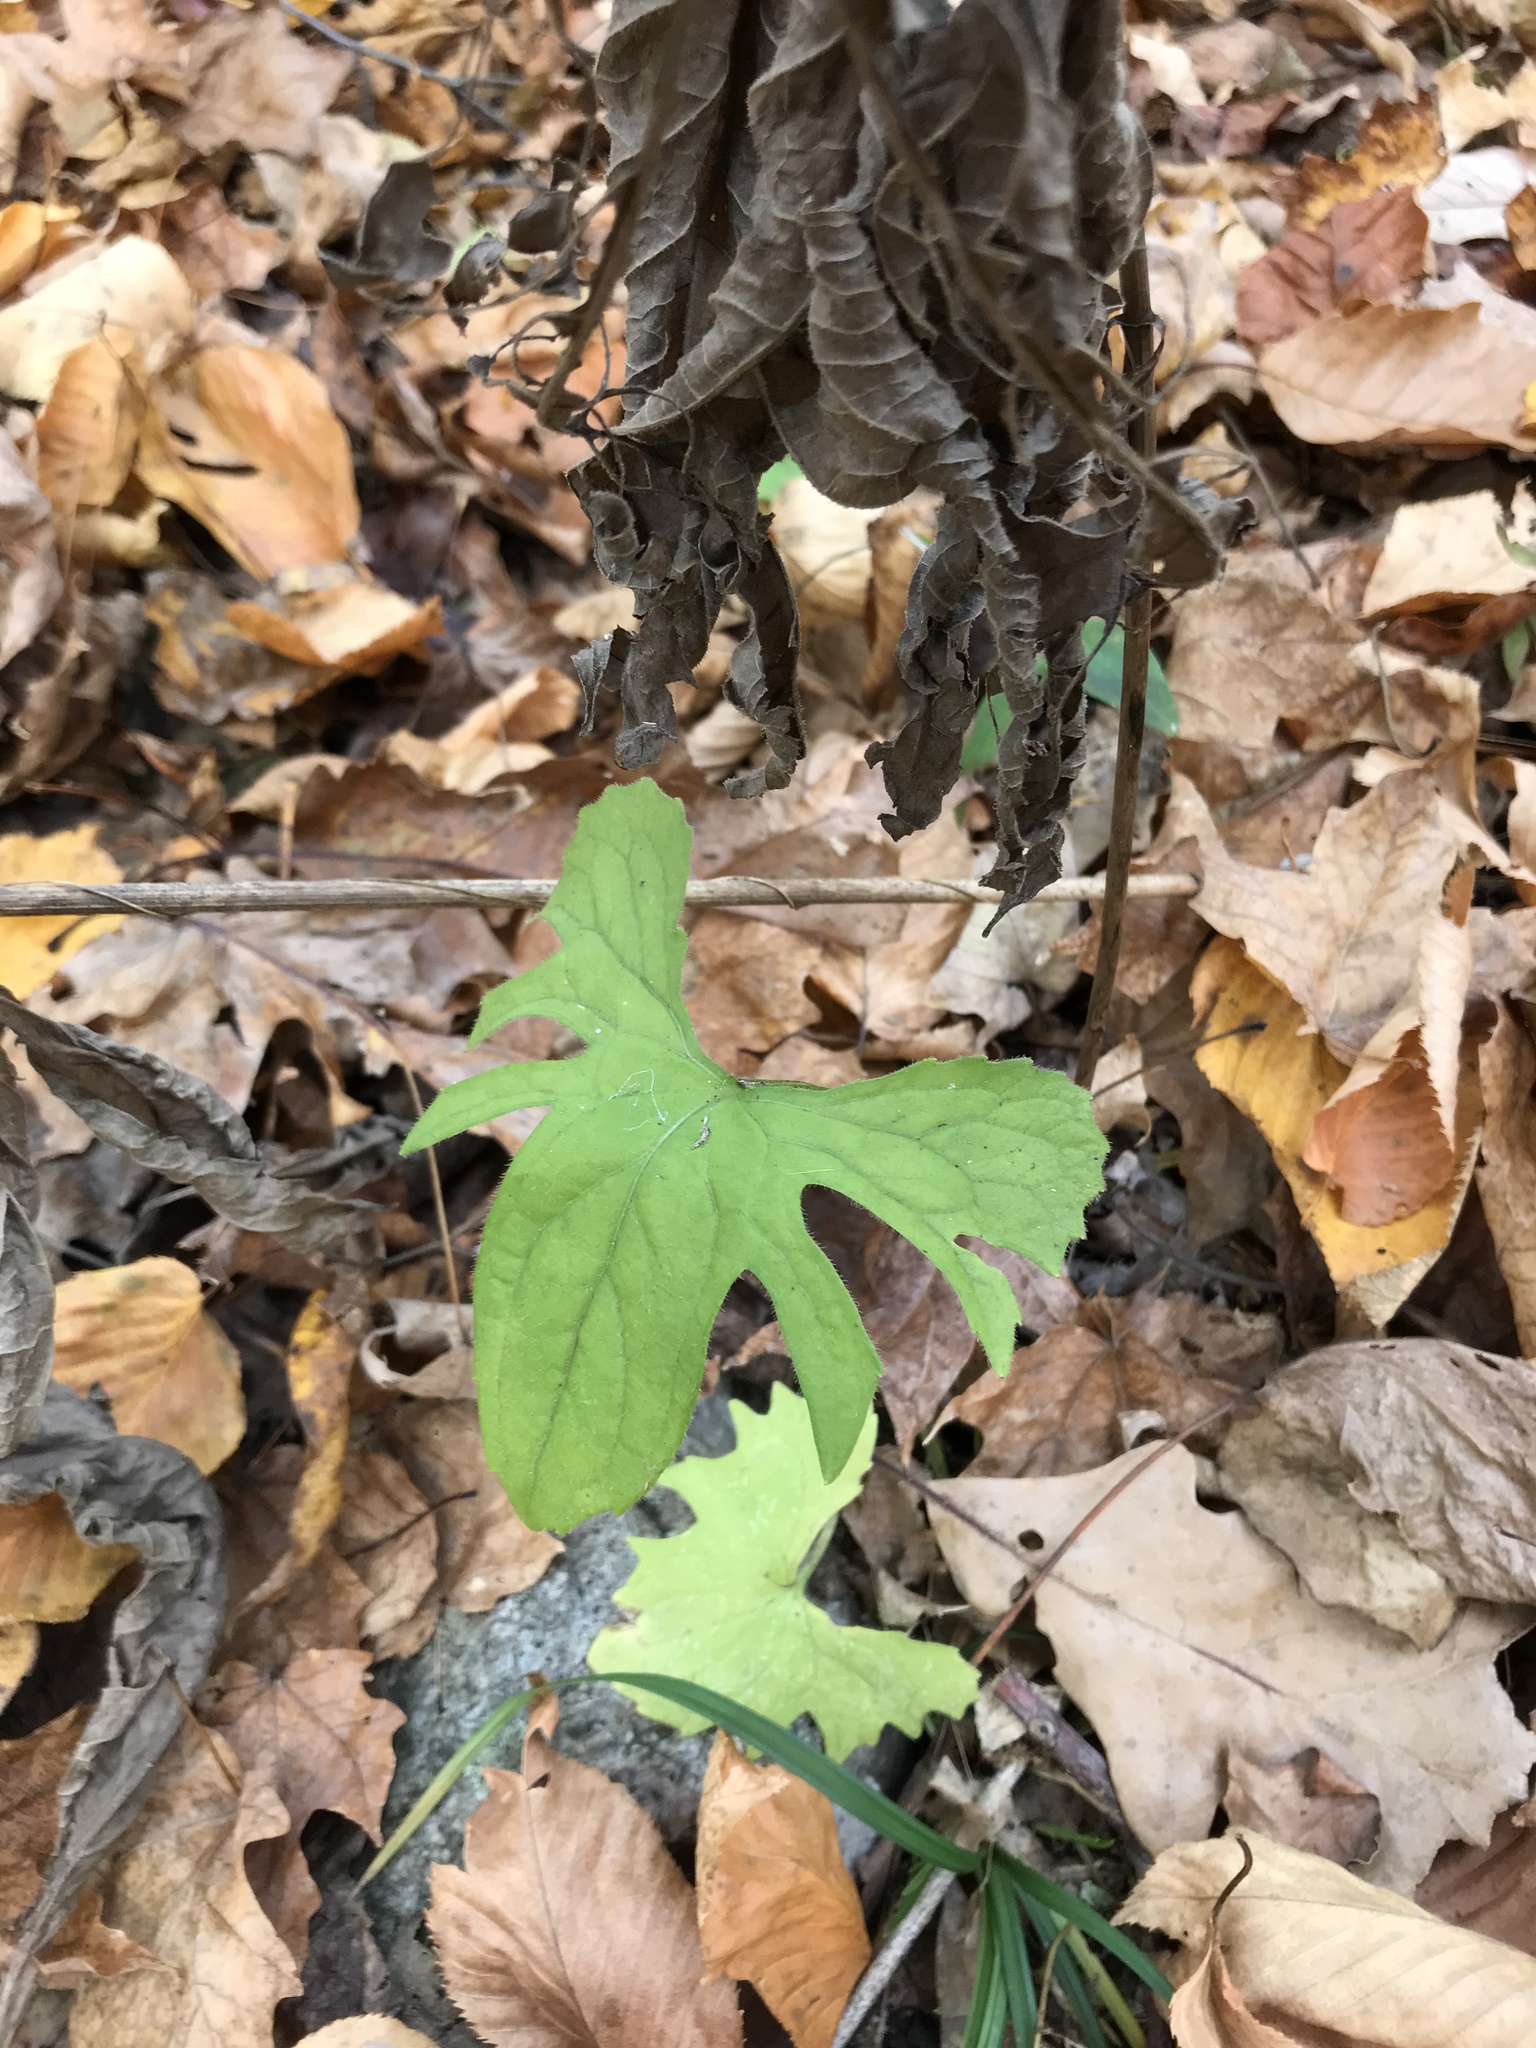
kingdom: Plantae
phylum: Tracheophyta
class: Magnoliopsida
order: Malpighiales
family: Violaceae
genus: Viola
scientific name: Viola palmata
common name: Early blue violet
